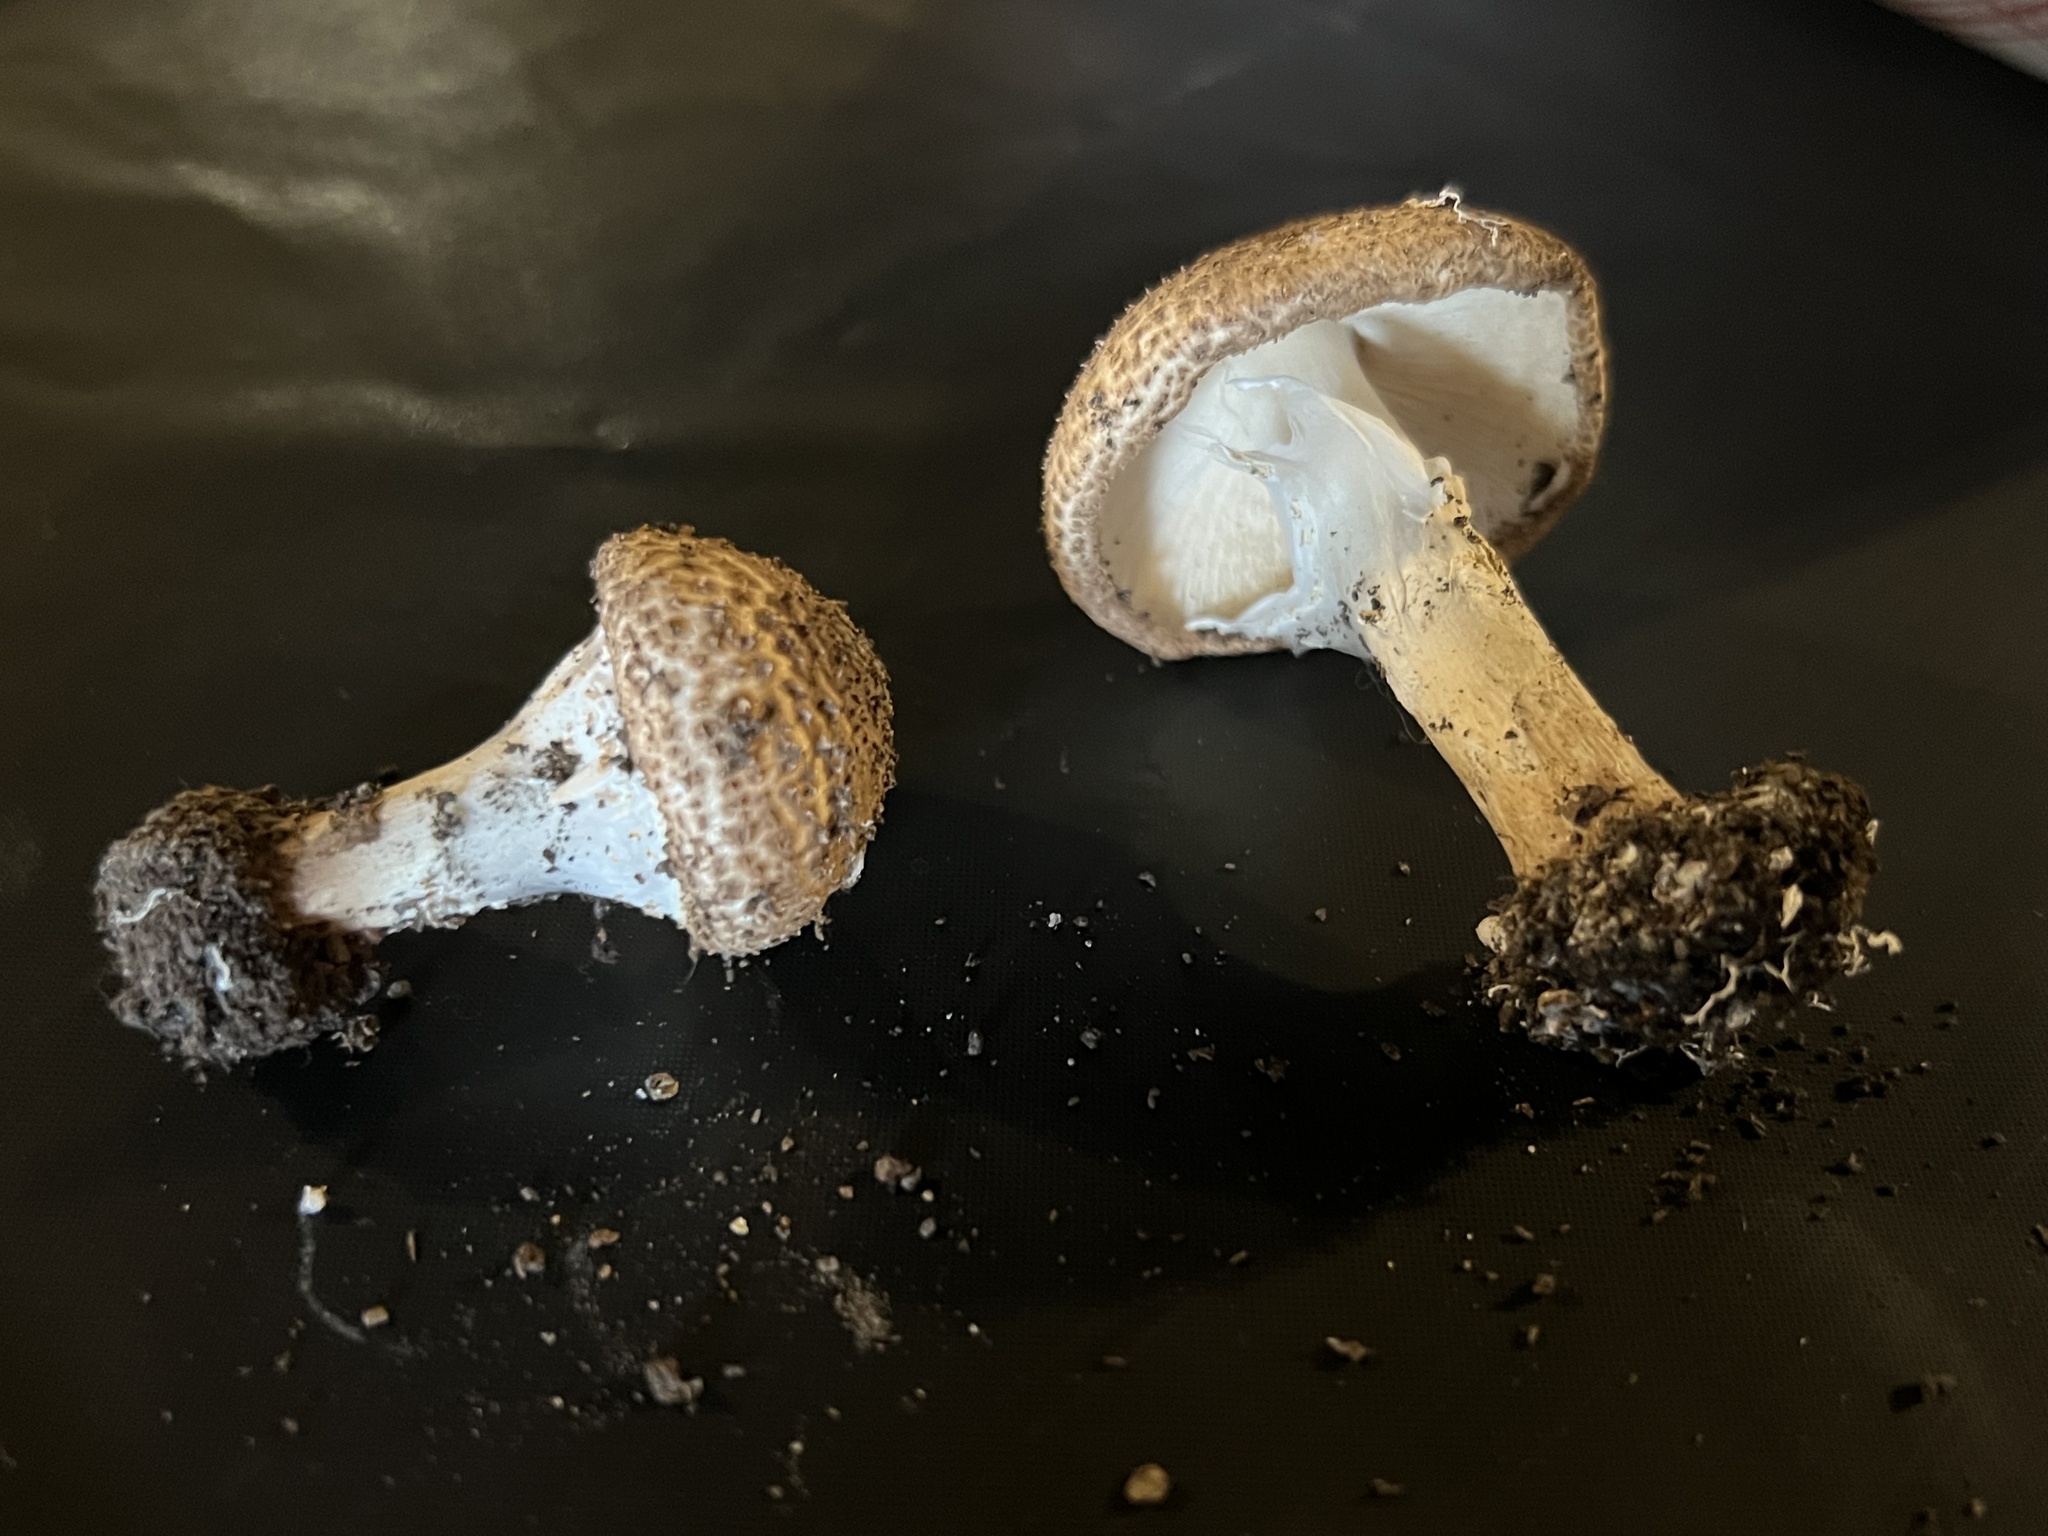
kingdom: Fungi
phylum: Basidiomycota
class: Agaricomycetes
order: Agaricales
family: Agaricaceae
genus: Echinoderma
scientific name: Echinoderma asperum
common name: Freckled dapperling
